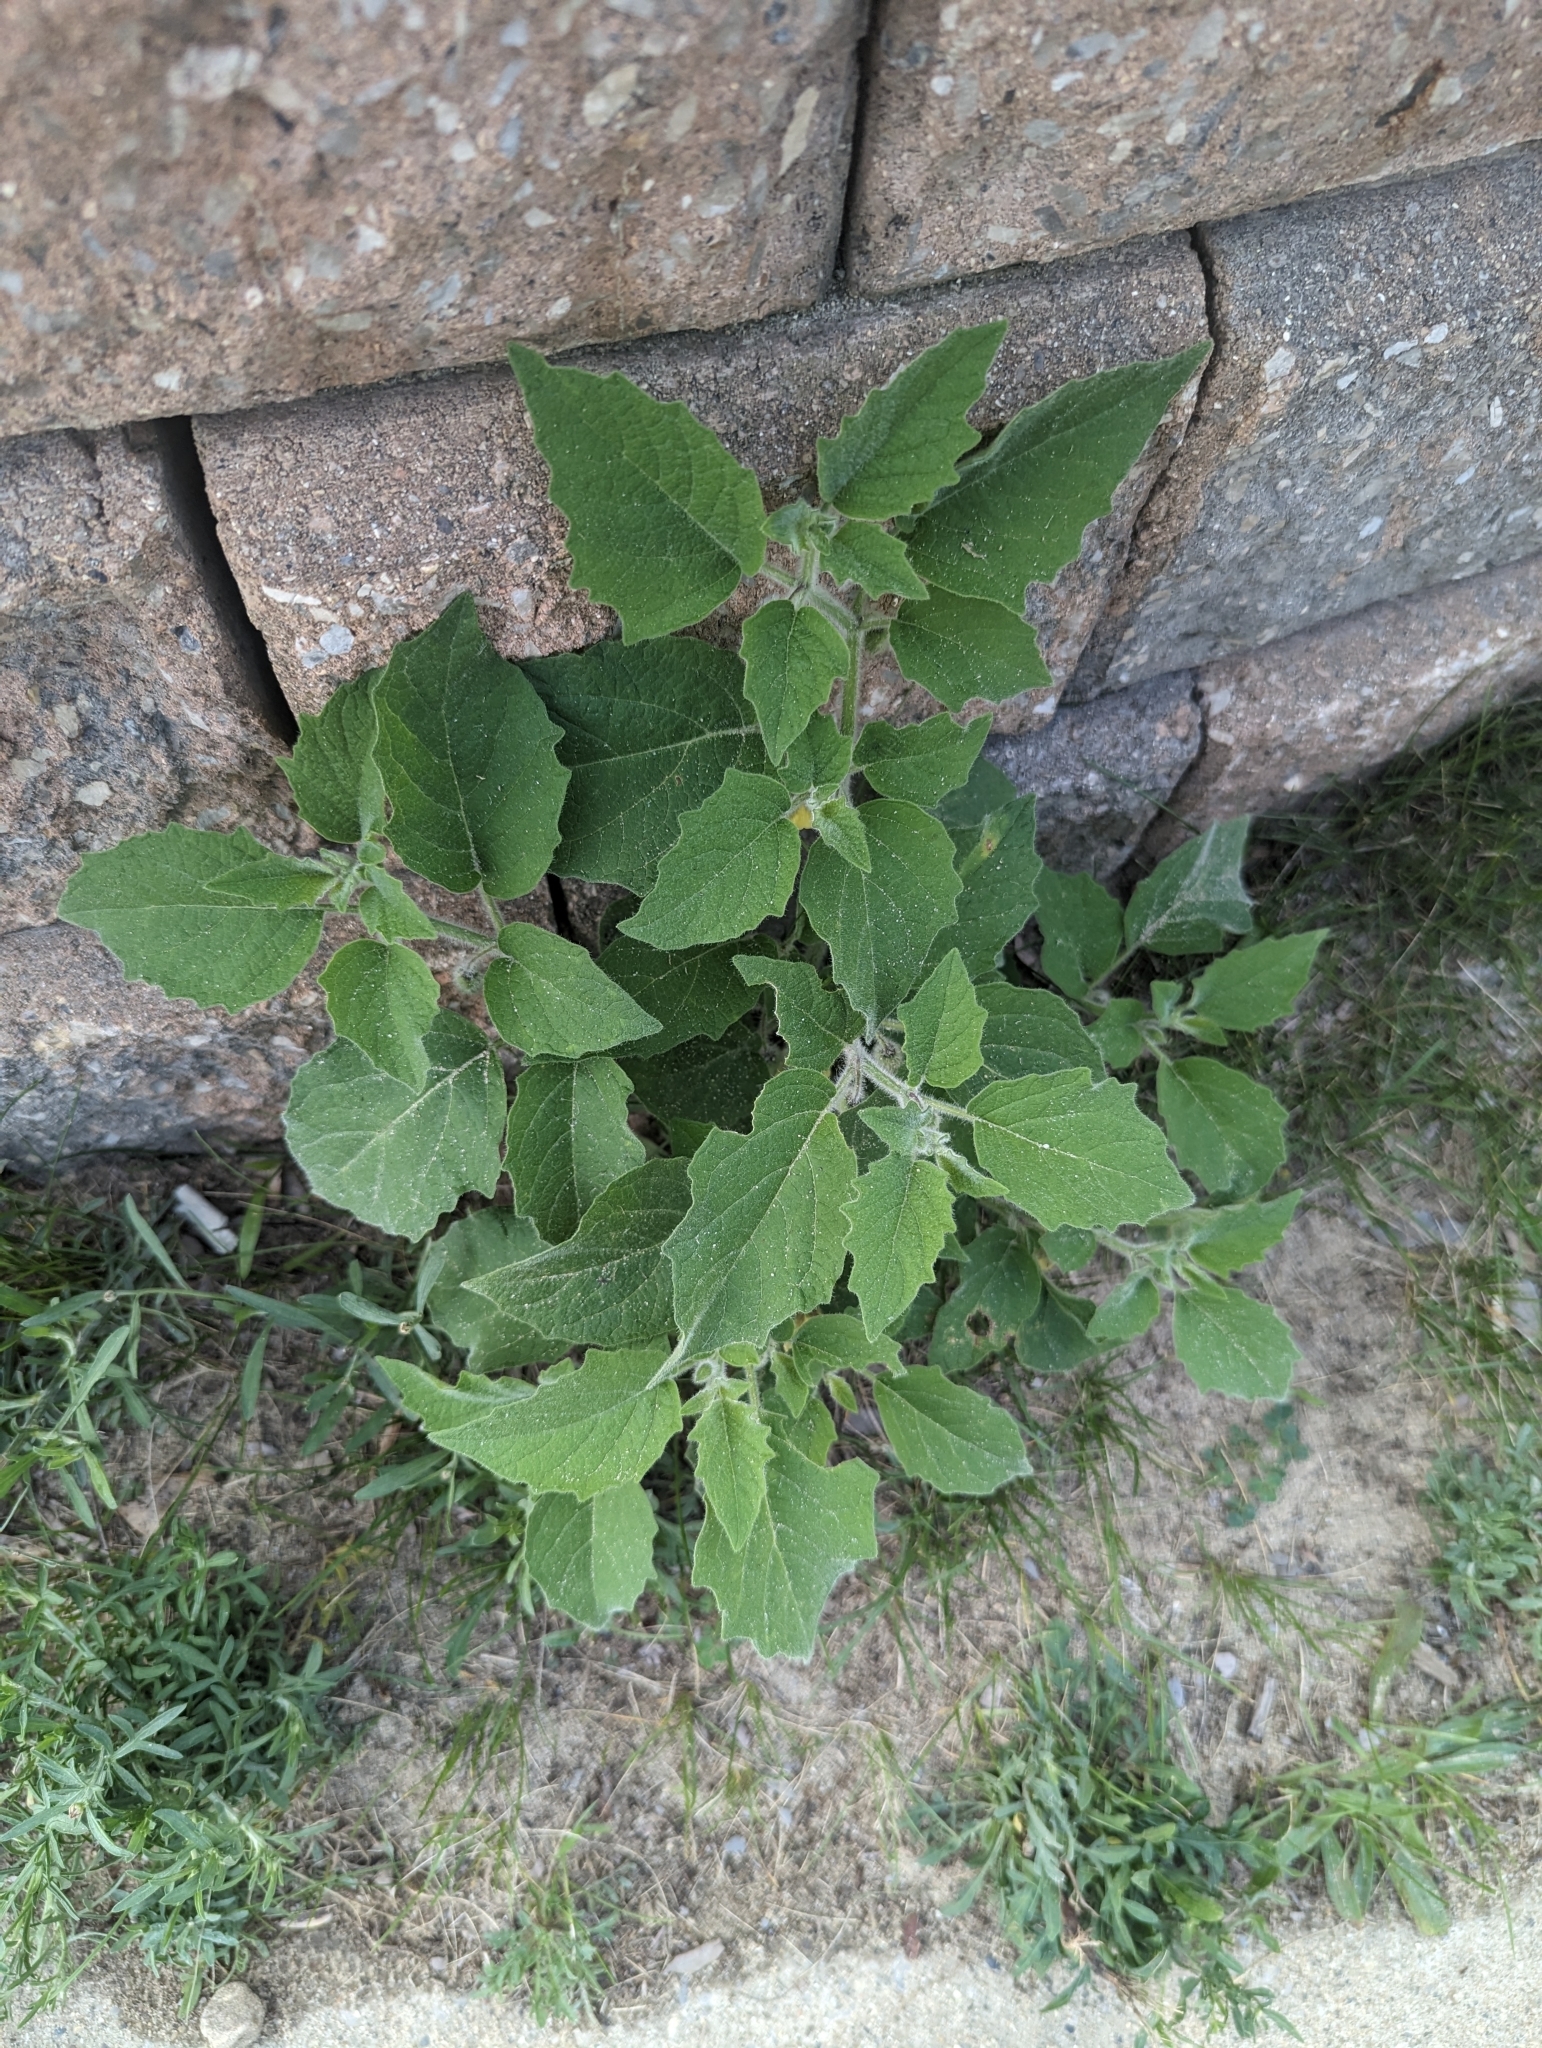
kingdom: Plantae
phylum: Tracheophyta
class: Magnoliopsida
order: Solanales
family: Solanaceae
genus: Physalis
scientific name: Physalis heterophylla
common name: Clammy ground-cherry
